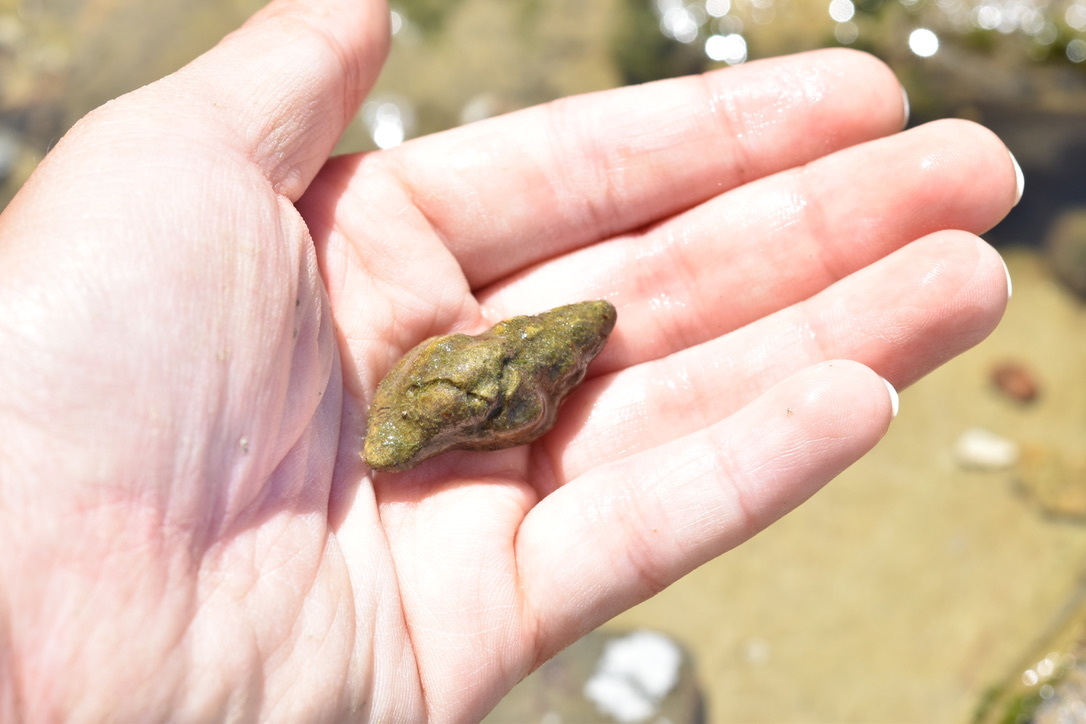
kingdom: Animalia
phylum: Mollusca
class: Gastropoda
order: Neogastropoda
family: Muricidae
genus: Roperia
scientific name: Roperia poulsoni
